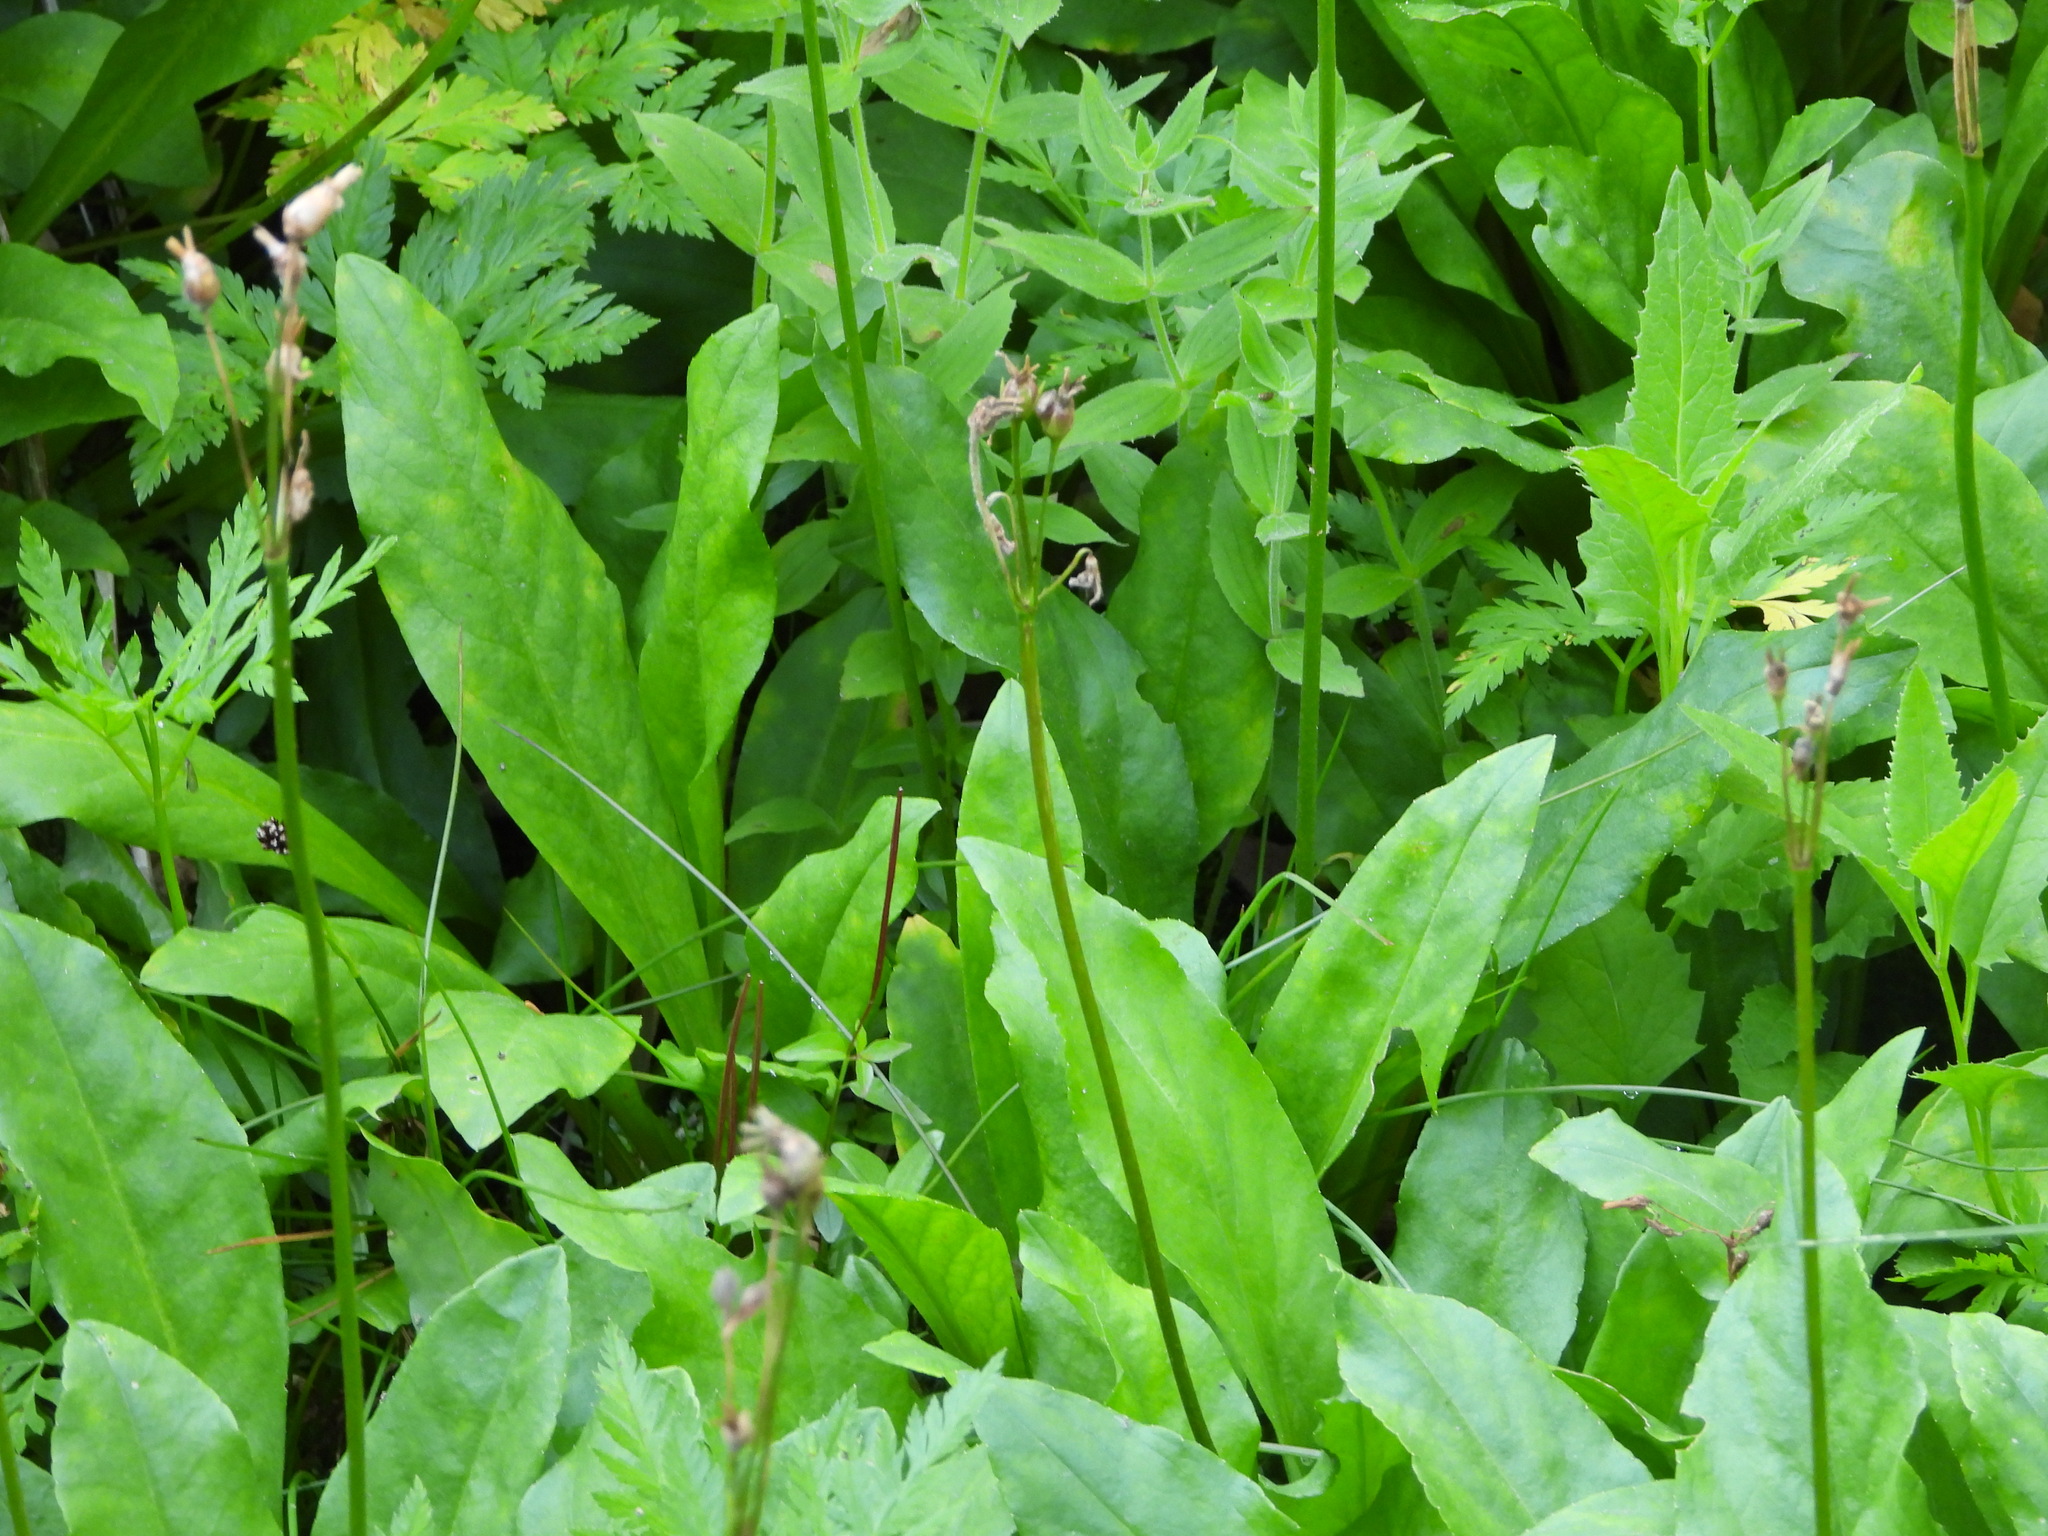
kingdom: Plantae
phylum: Tracheophyta
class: Magnoliopsida
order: Ericales
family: Primulaceae
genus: Dodecatheon
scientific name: Dodecatheon jeffreyanum
